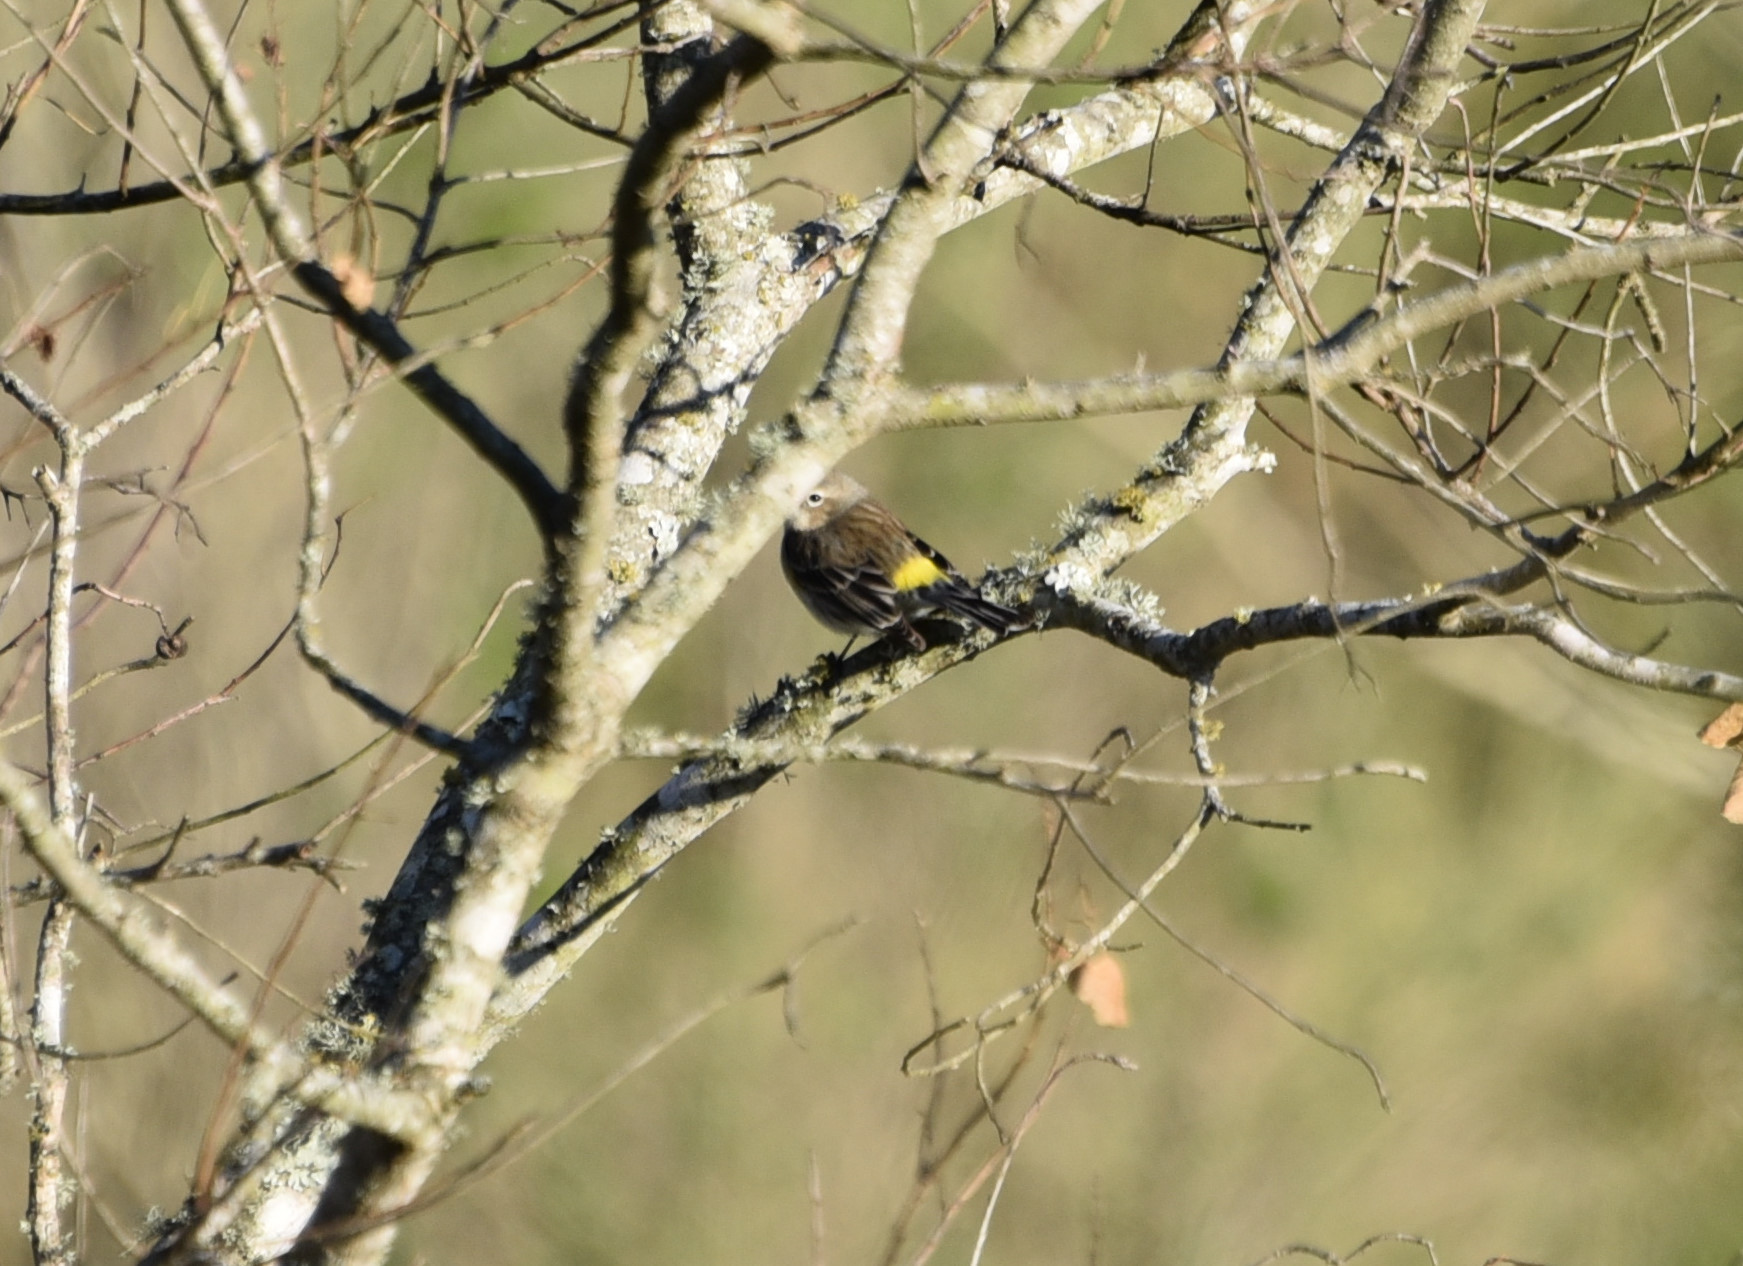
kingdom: Animalia
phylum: Chordata
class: Aves
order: Passeriformes
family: Parulidae
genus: Setophaga
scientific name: Setophaga coronata
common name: Myrtle warbler
